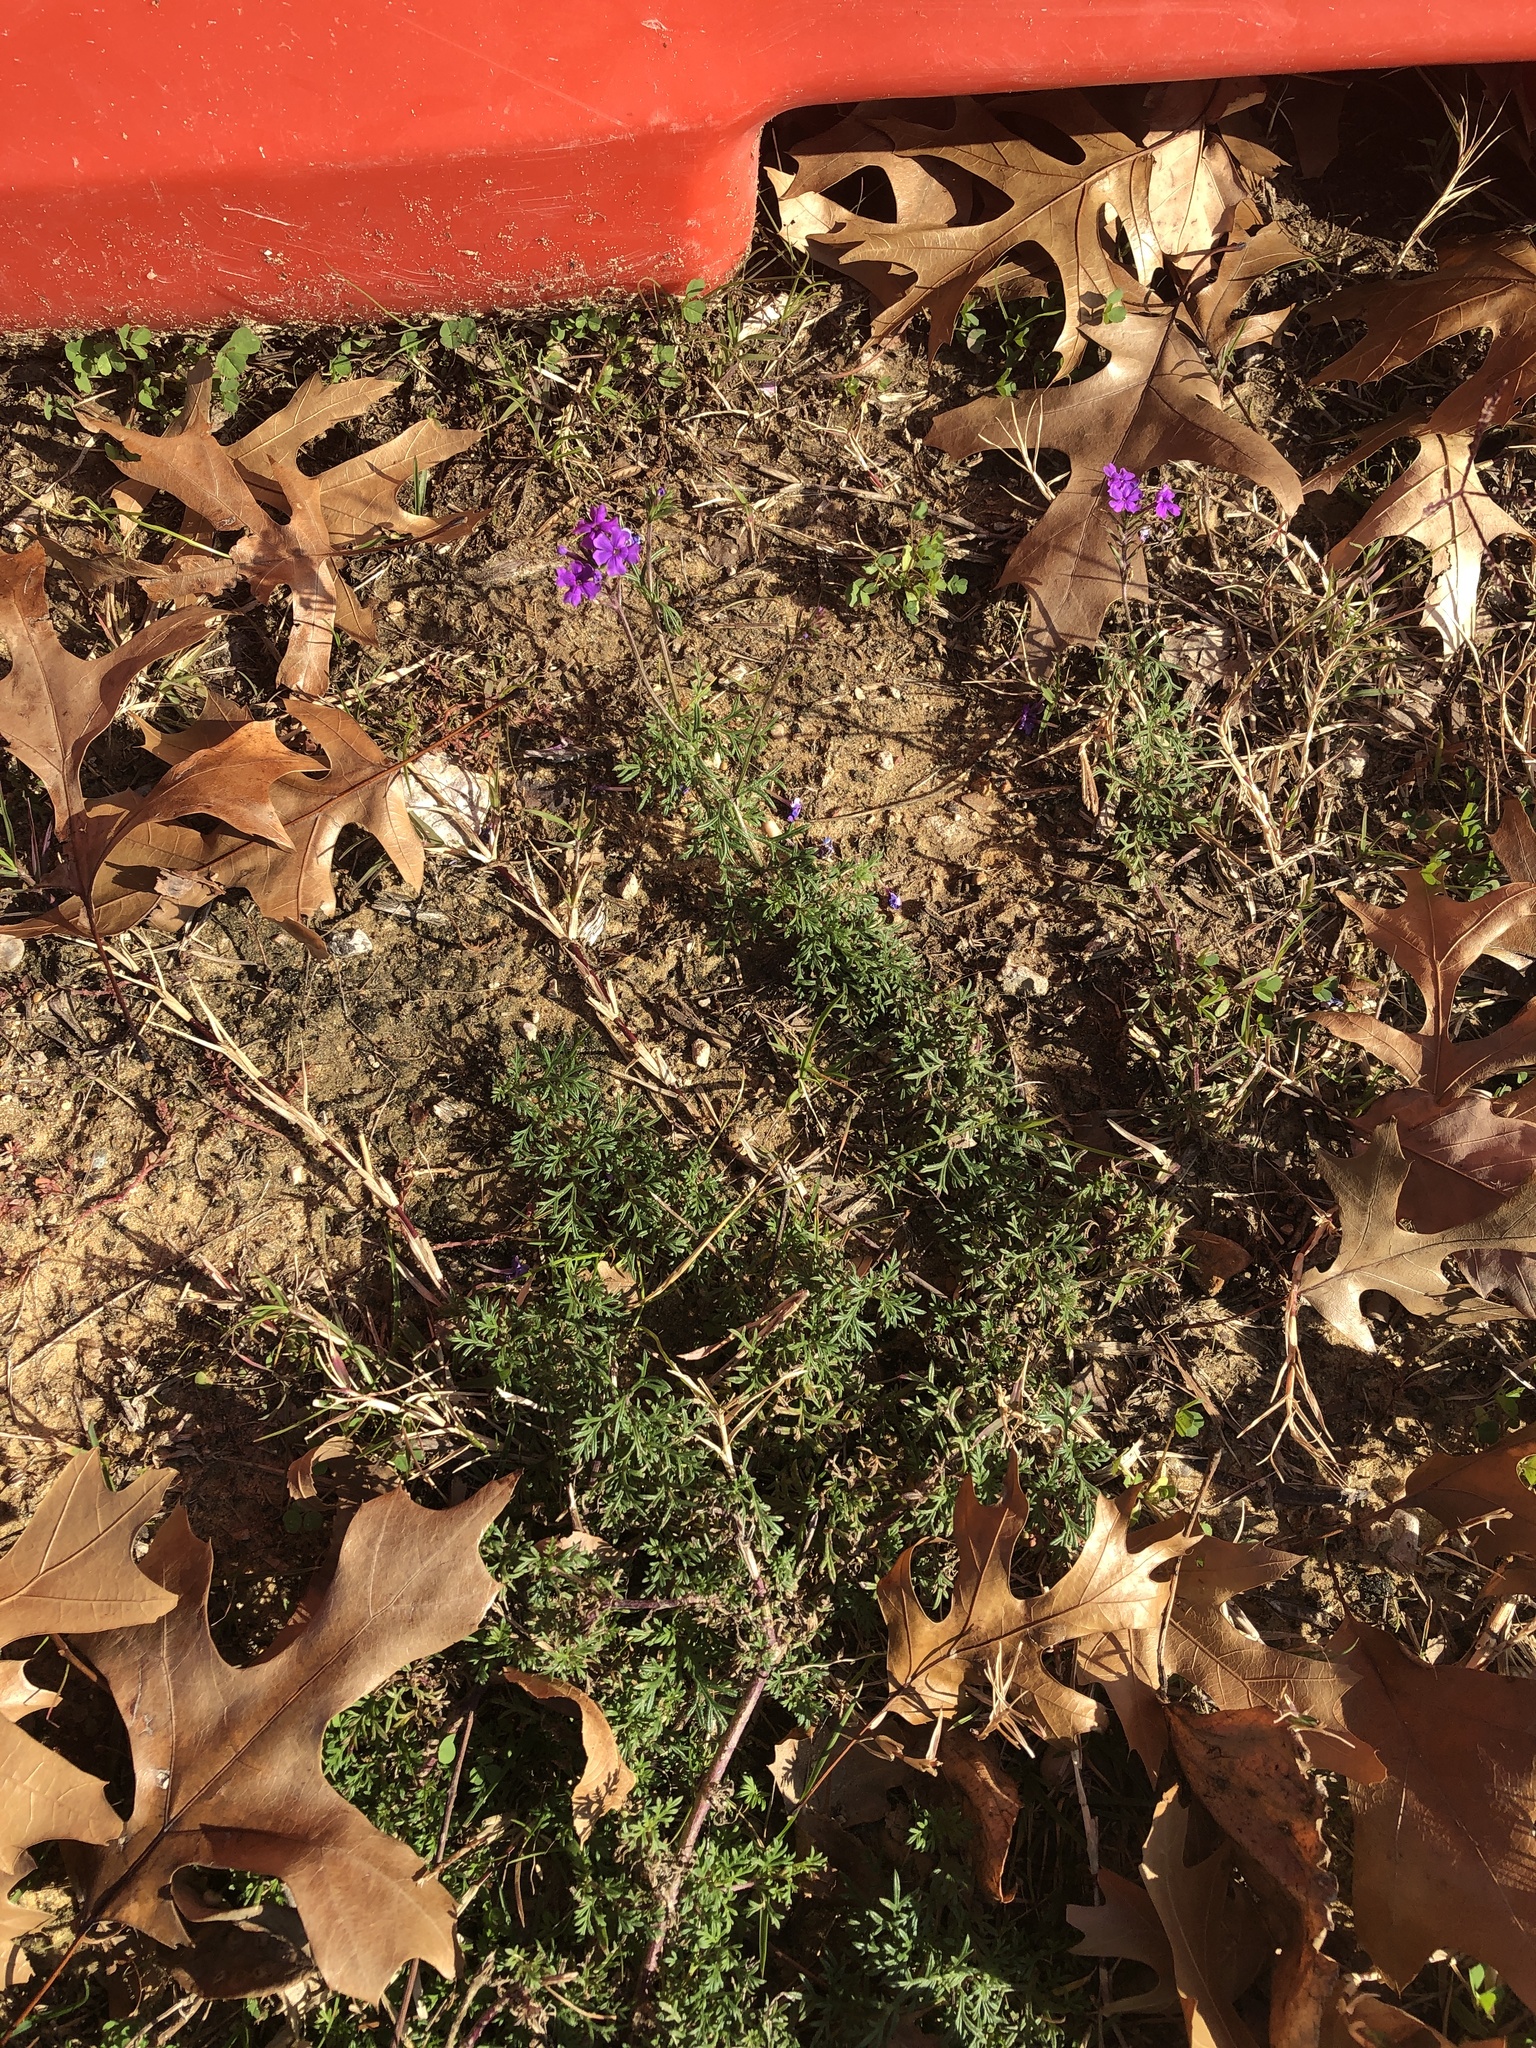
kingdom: Plantae
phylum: Tracheophyta
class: Magnoliopsida
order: Lamiales
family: Verbenaceae
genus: Verbena
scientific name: Verbena bipinnatifida
